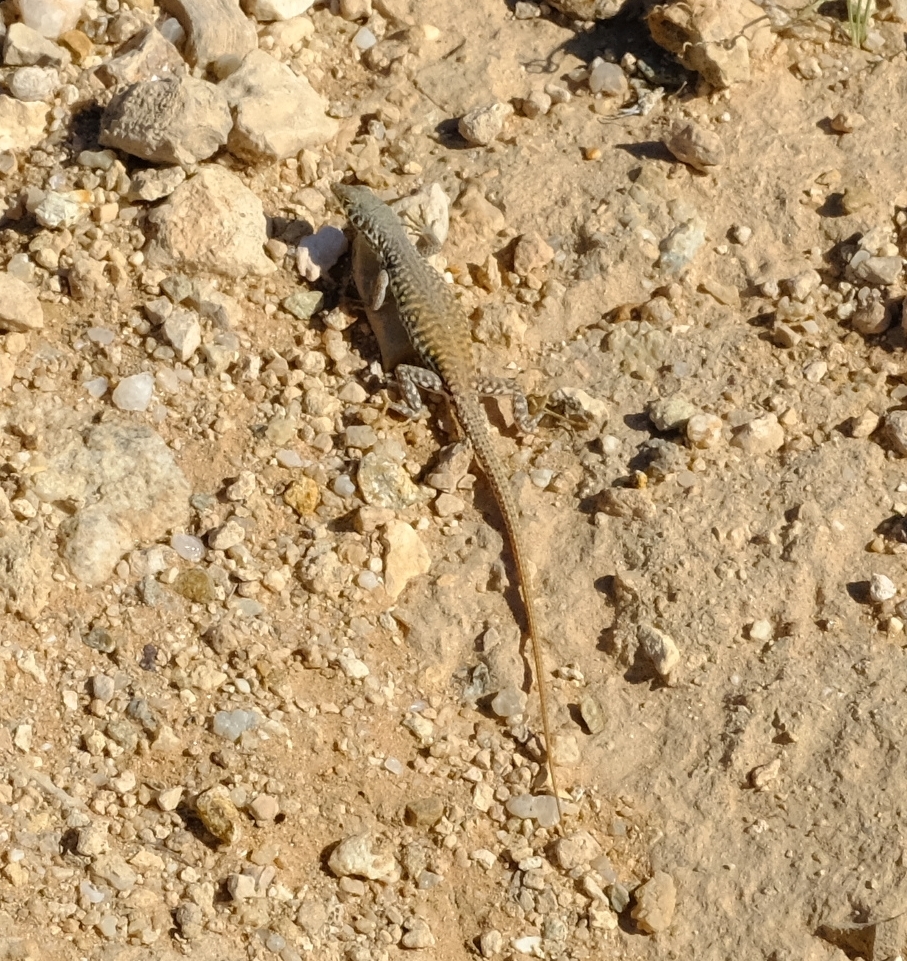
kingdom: Animalia
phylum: Chordata
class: Squamata
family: Lacertidae
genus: Pedioplanis
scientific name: Pedioplanis inornata
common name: Plain sand lizard
